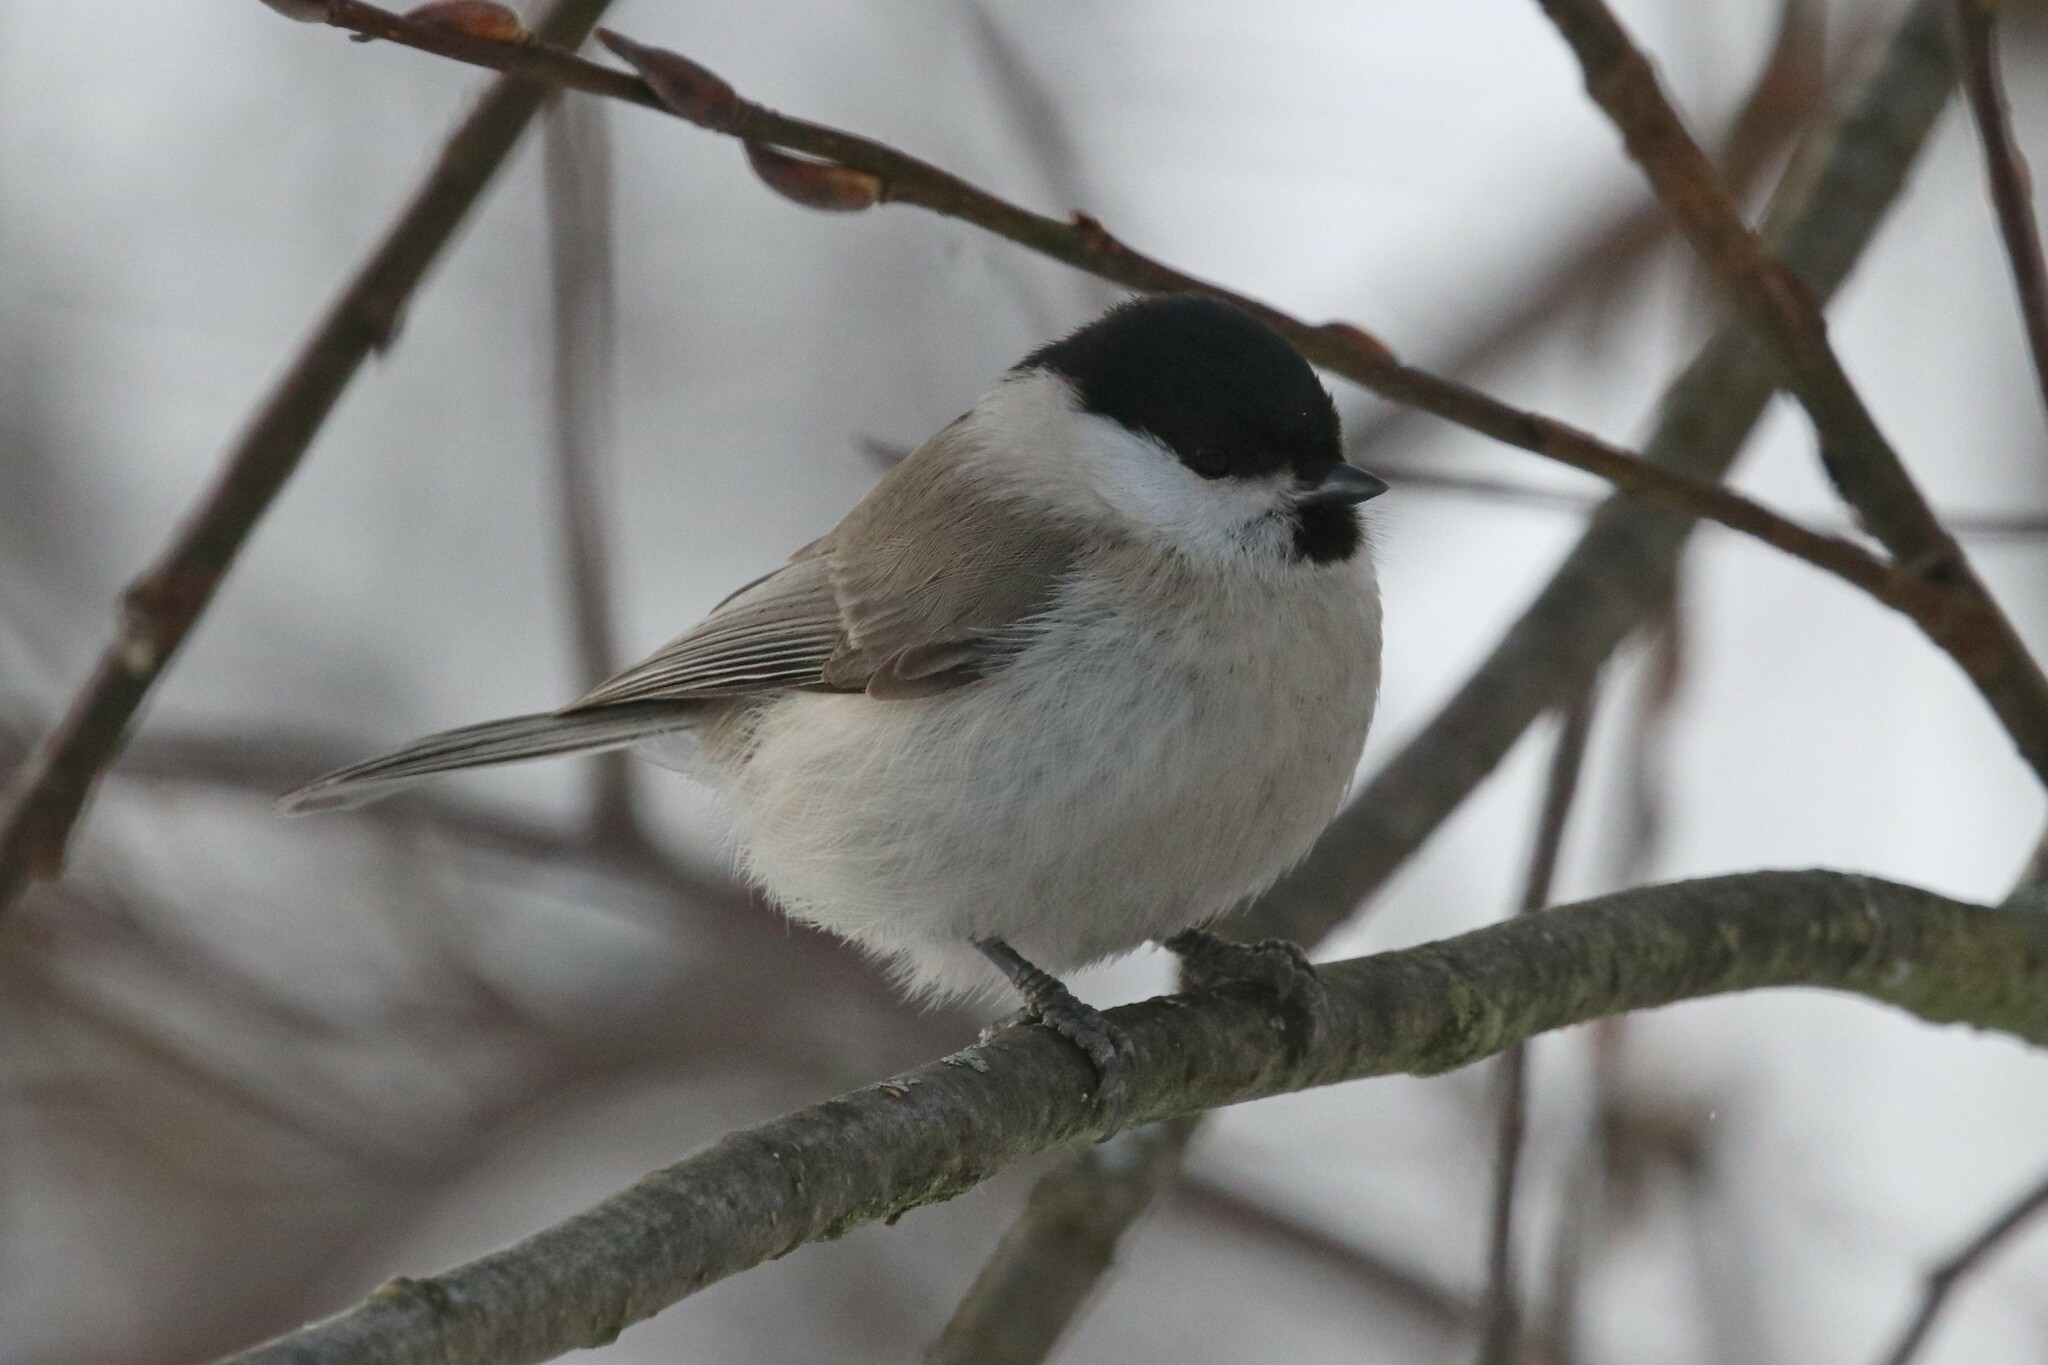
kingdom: Animalia
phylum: Chordata
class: Aves
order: Passeriformes
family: Paridae
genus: Poecile
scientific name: Poecile palustris
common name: Marsh tit
